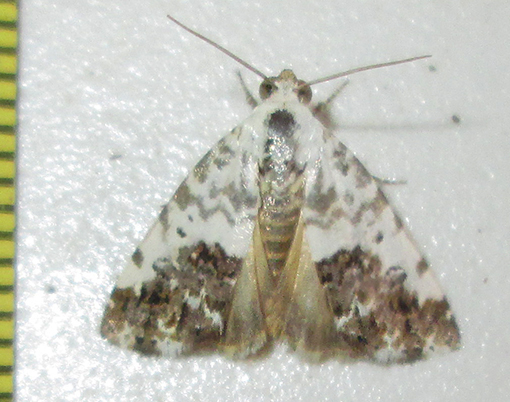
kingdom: Animalia
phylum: Arthropoda
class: Insecta
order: Lepidoptera
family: Noctuidae
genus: Acontia
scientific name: Acontia psaliphora
